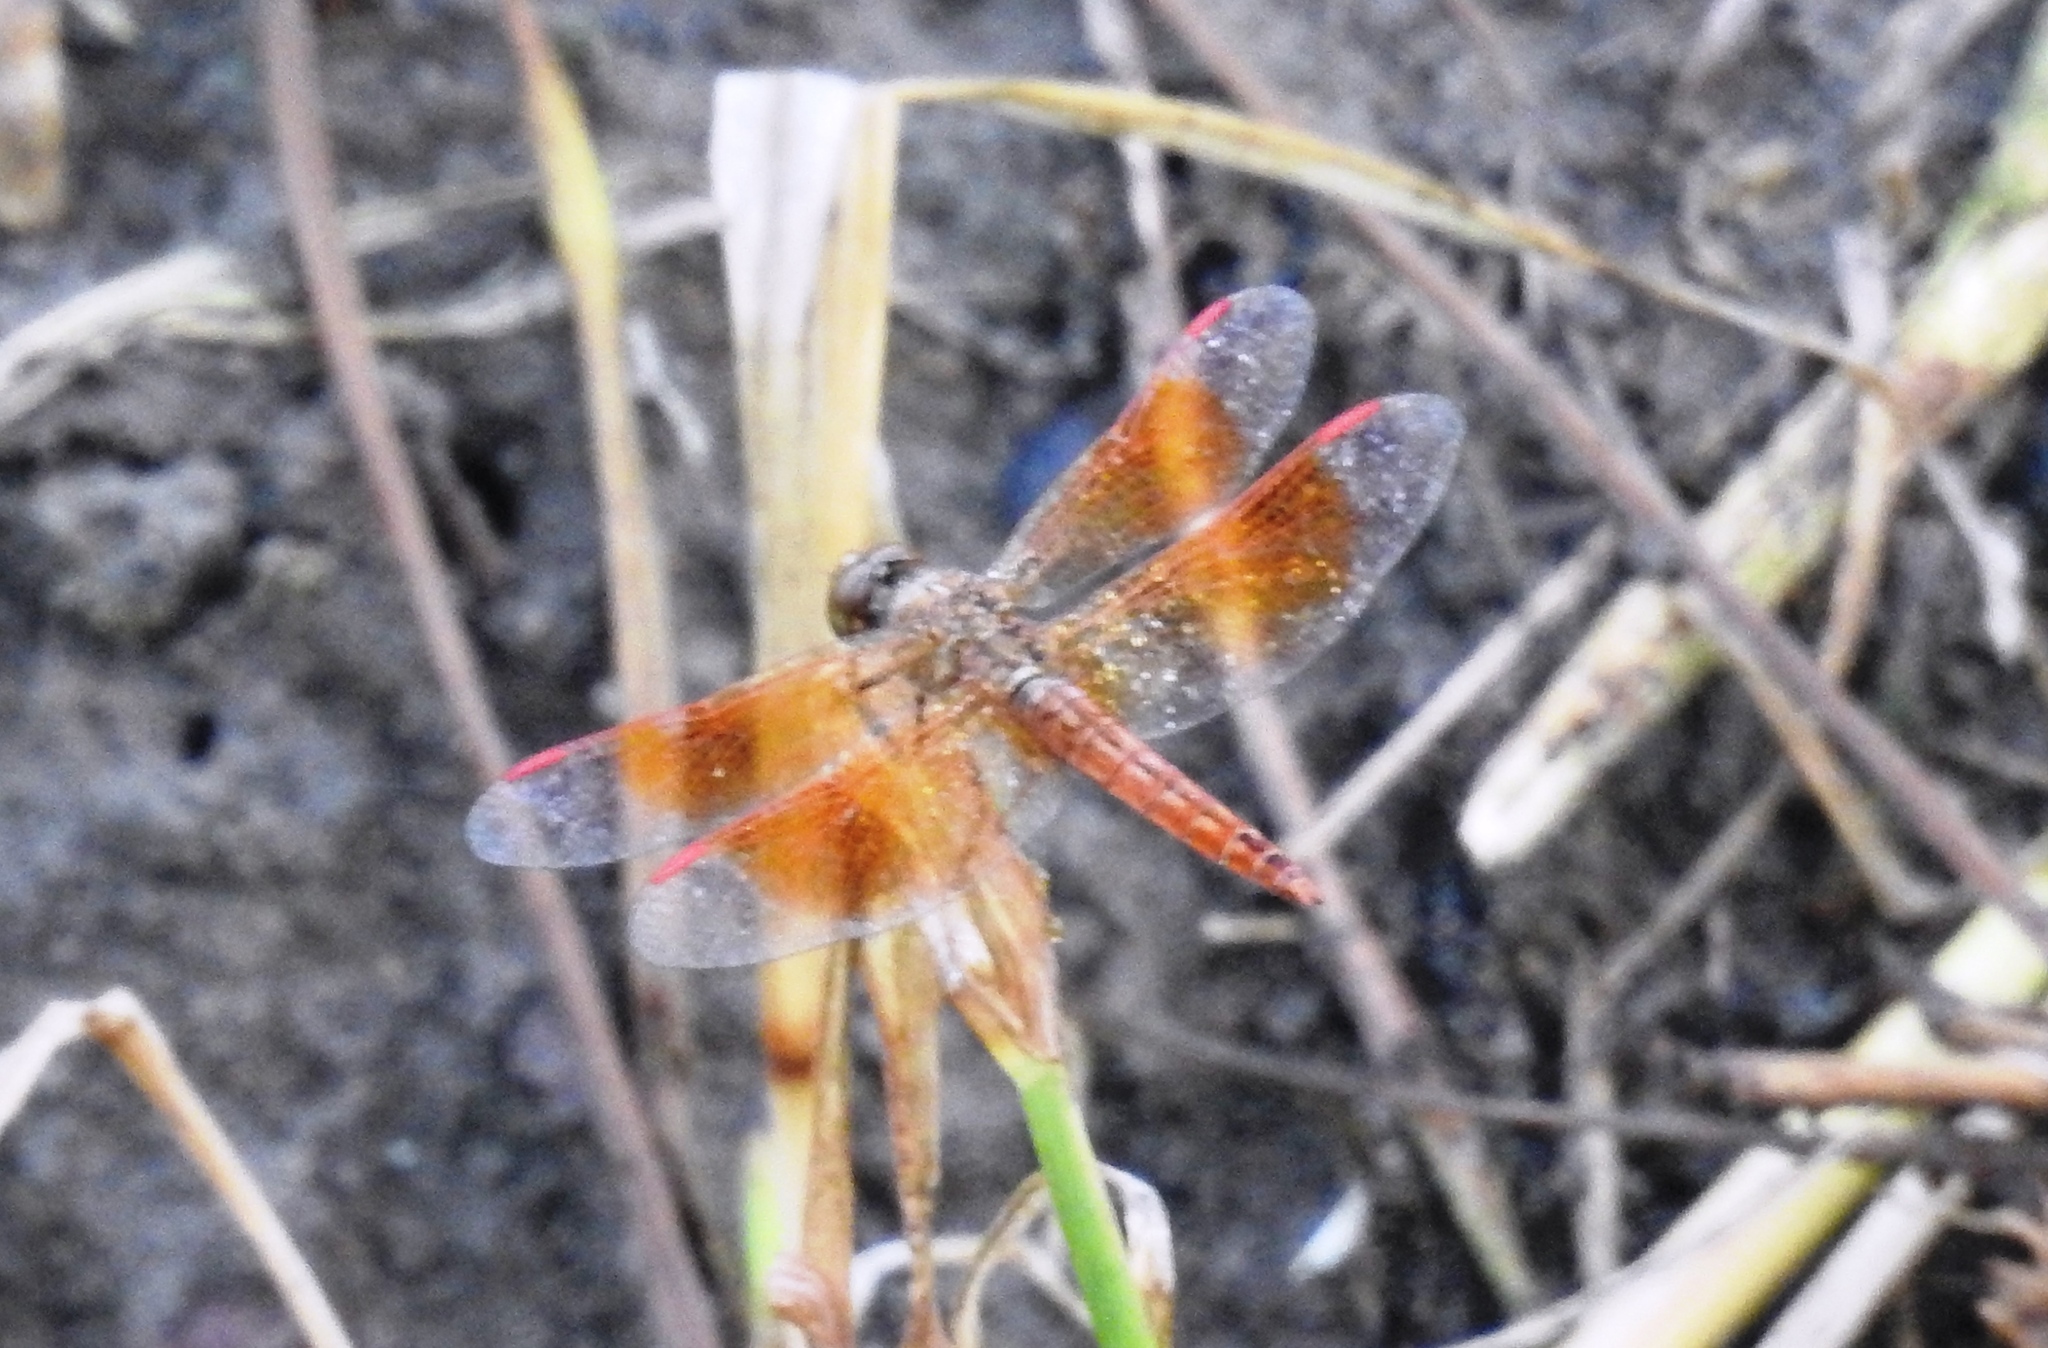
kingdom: Animalia
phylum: Arthropoda
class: Insecta
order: Odonata
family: Libellulidae
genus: Brachythemis
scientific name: Brachythemis contaminata
